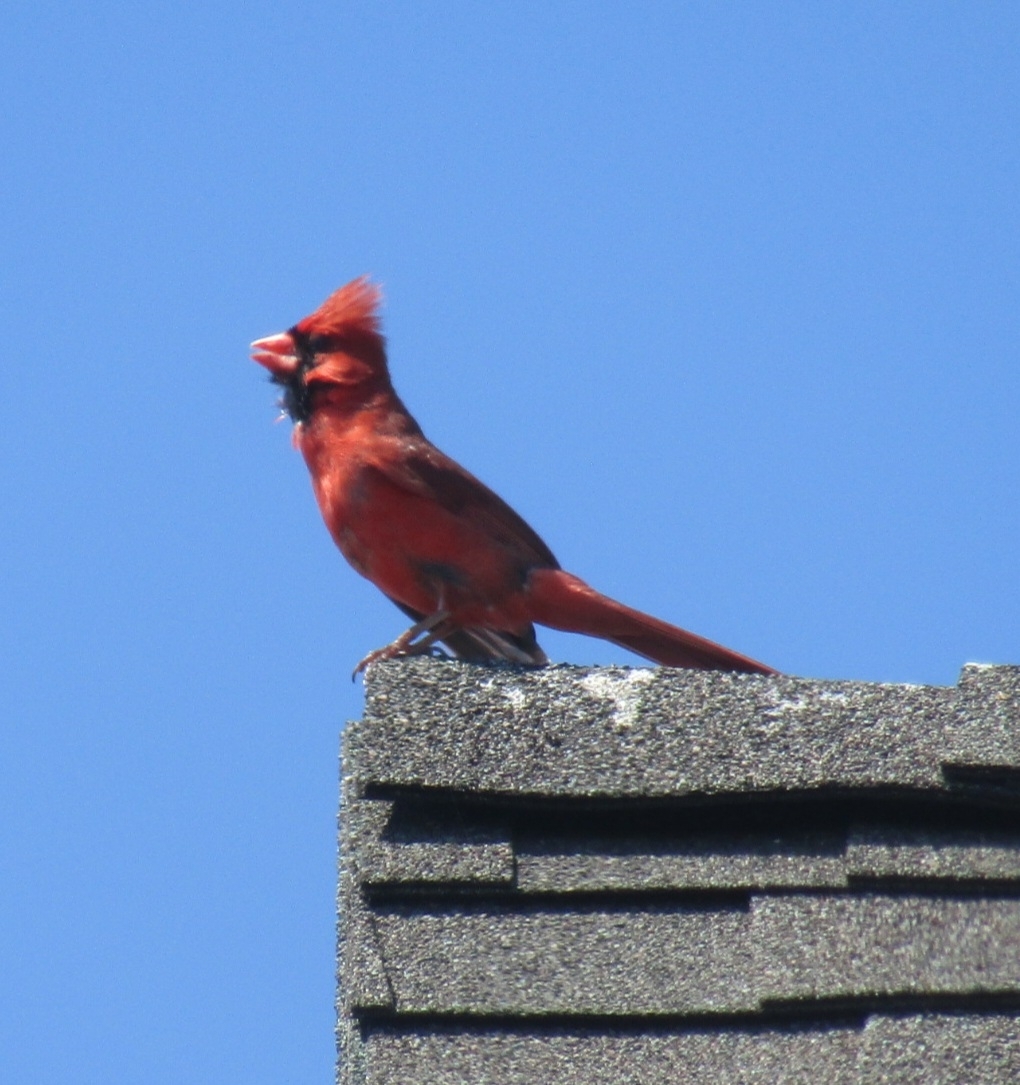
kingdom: Animalia
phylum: Chordata
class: Aves
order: Passeriformes
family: Cardinalidae
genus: Cardinalis
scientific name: Cardinalis cardinalis
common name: Northern cardinal
